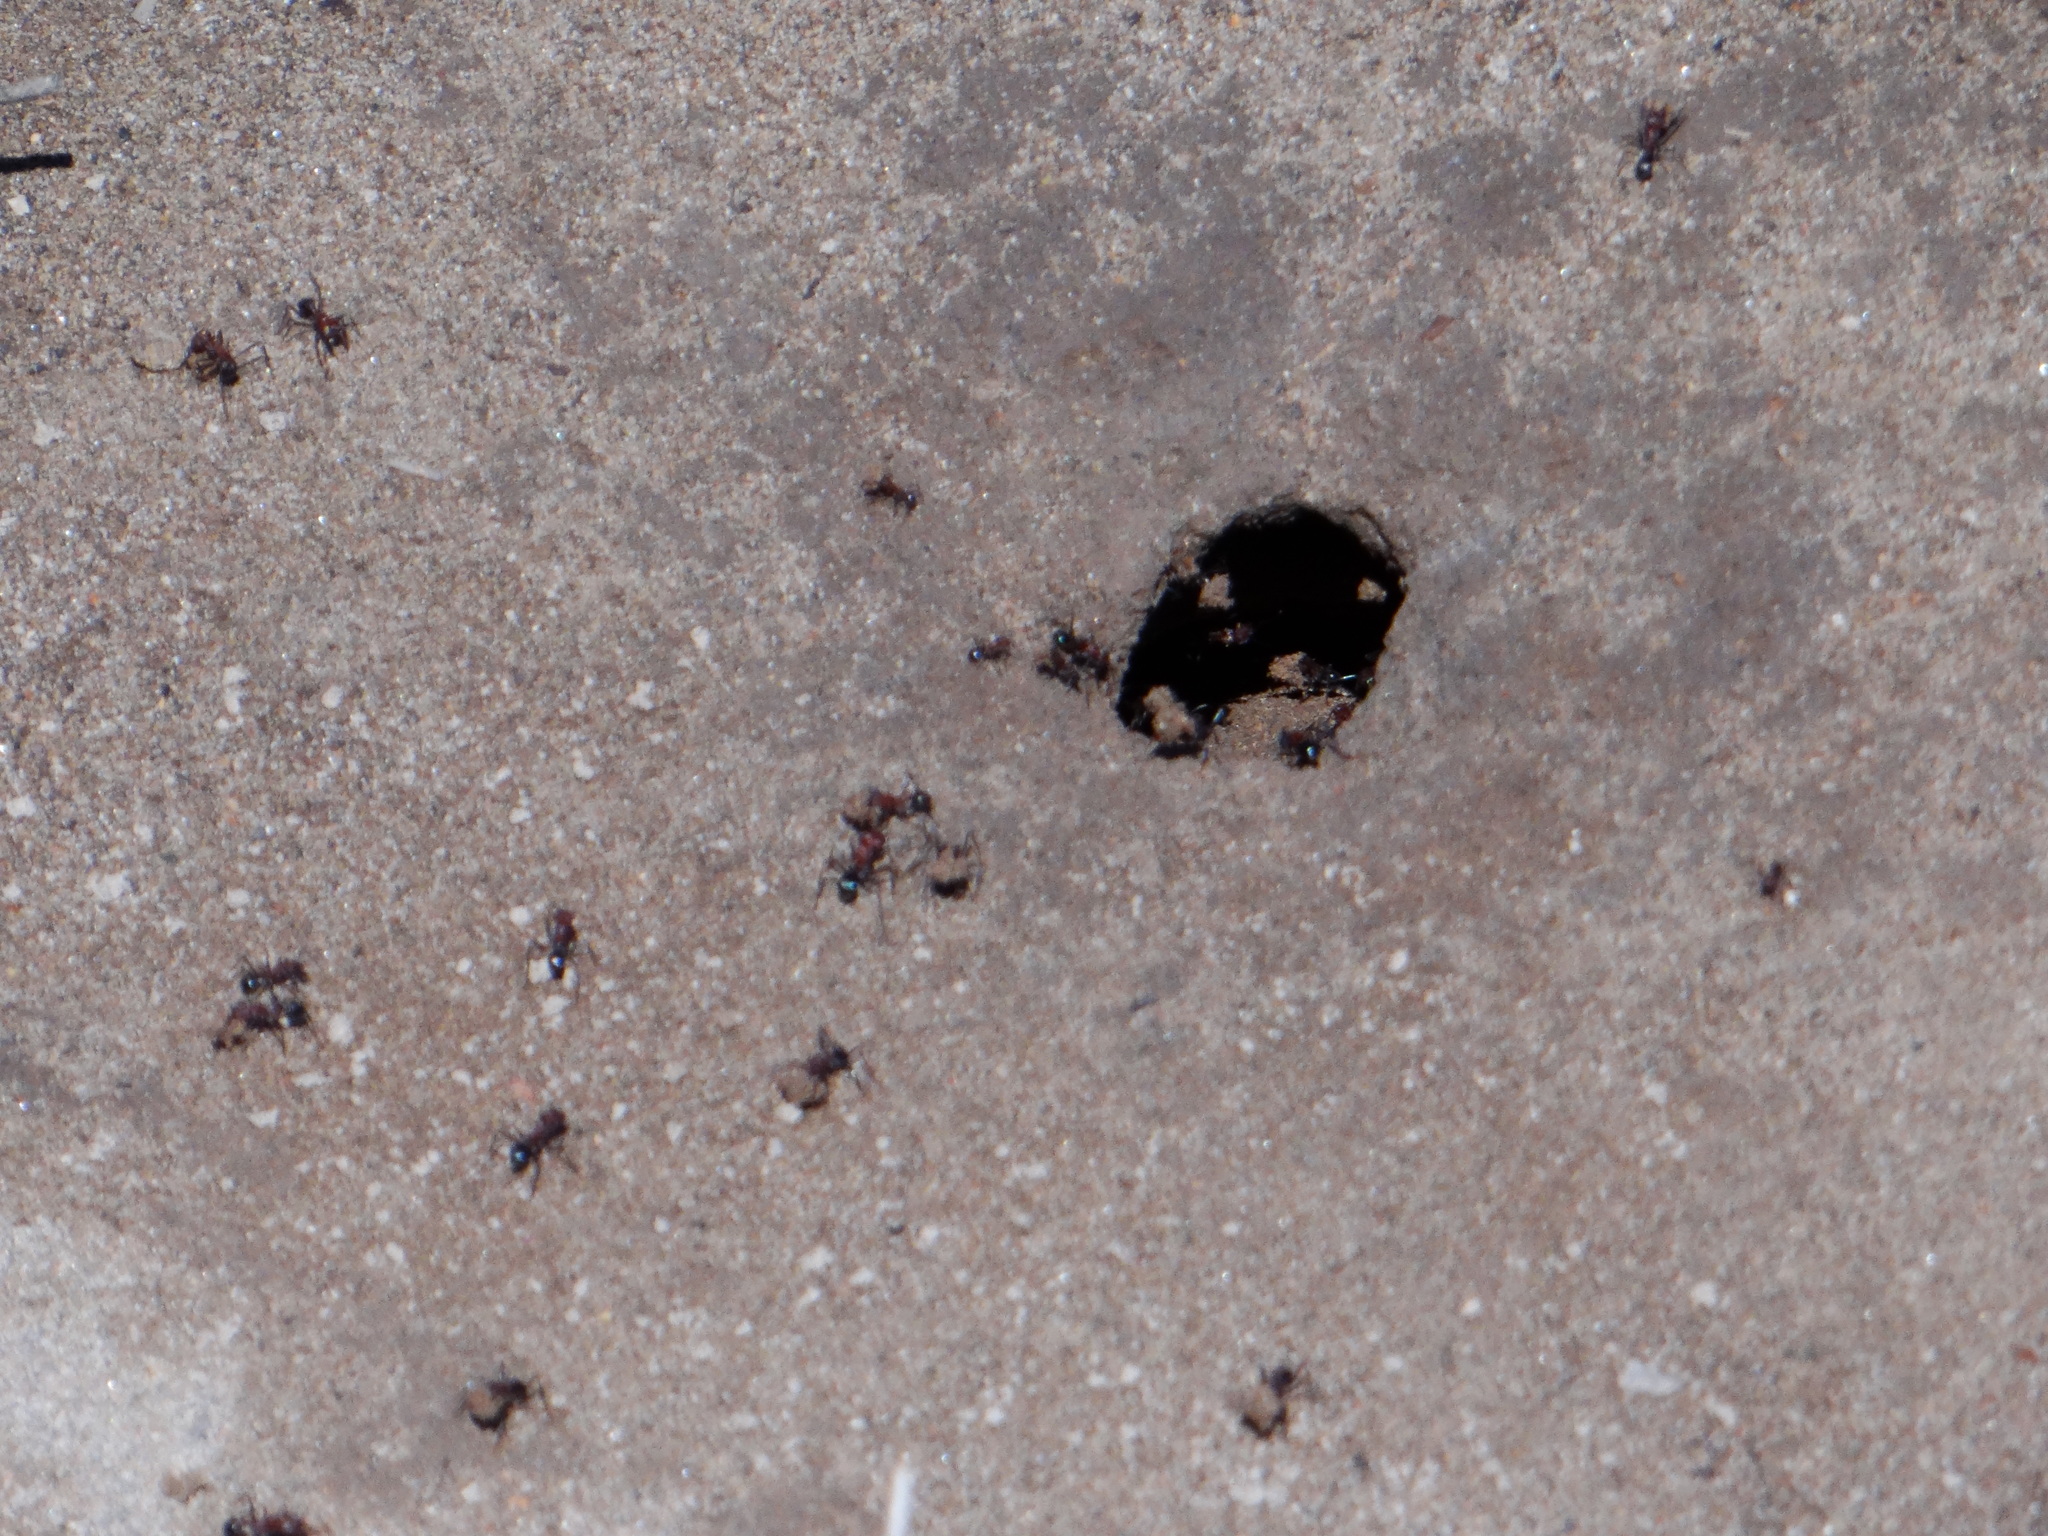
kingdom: Animalia
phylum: Arthropoda
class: Insecta
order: Hymenoptera
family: Formicidae
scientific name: Formicidae
